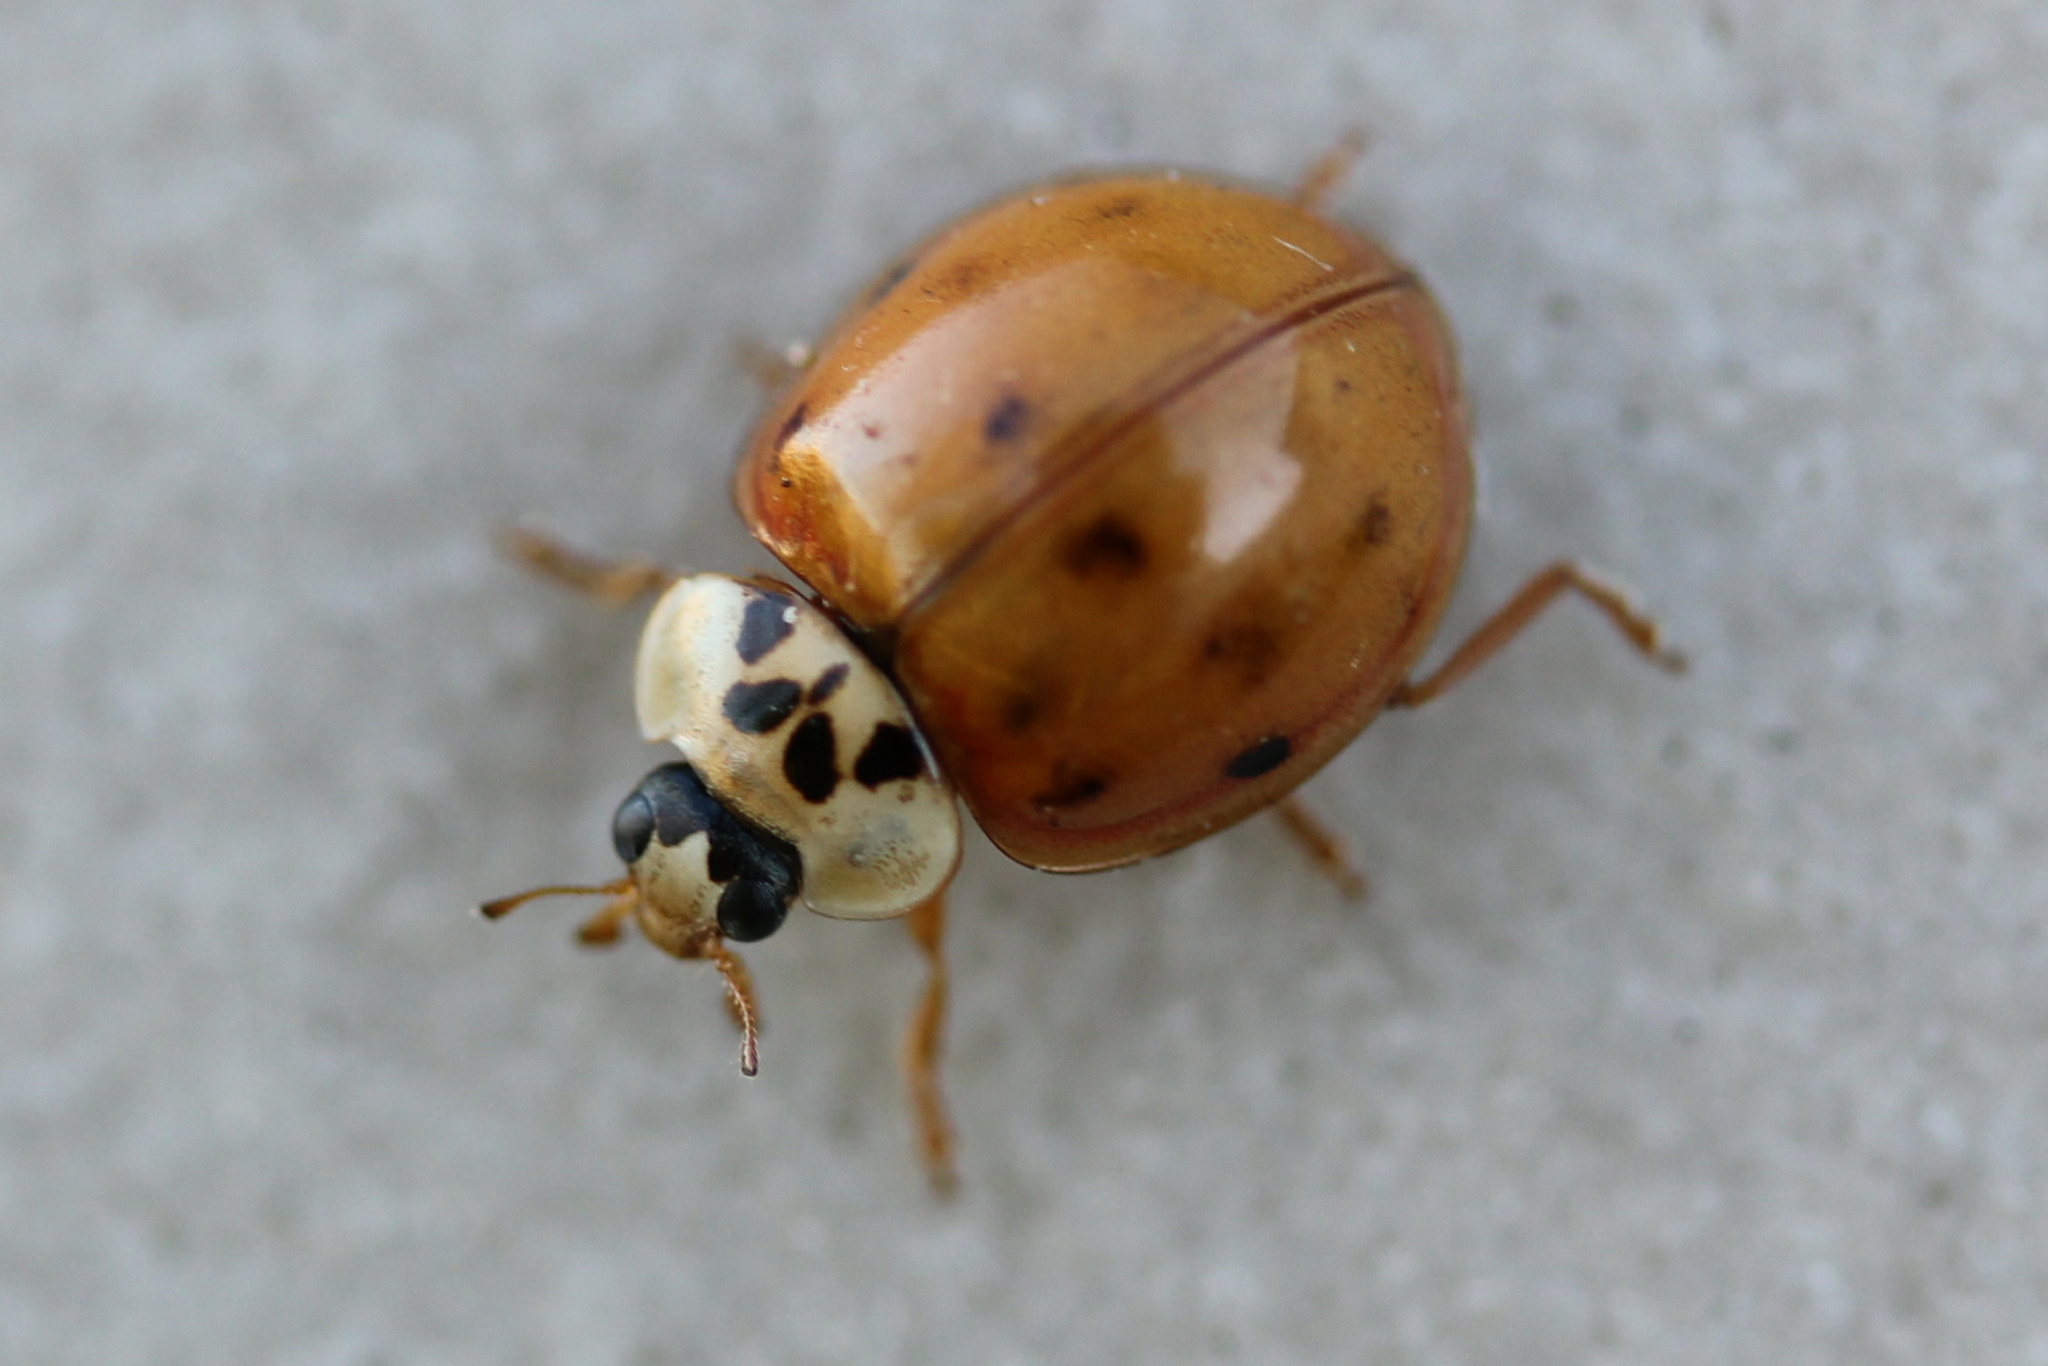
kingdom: Animalia
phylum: Arthropoda
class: Insecta
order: Coleoptera
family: Coccinellidae
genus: Harmonia
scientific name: Harmonia axyridis
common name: Harlequin ladybird
